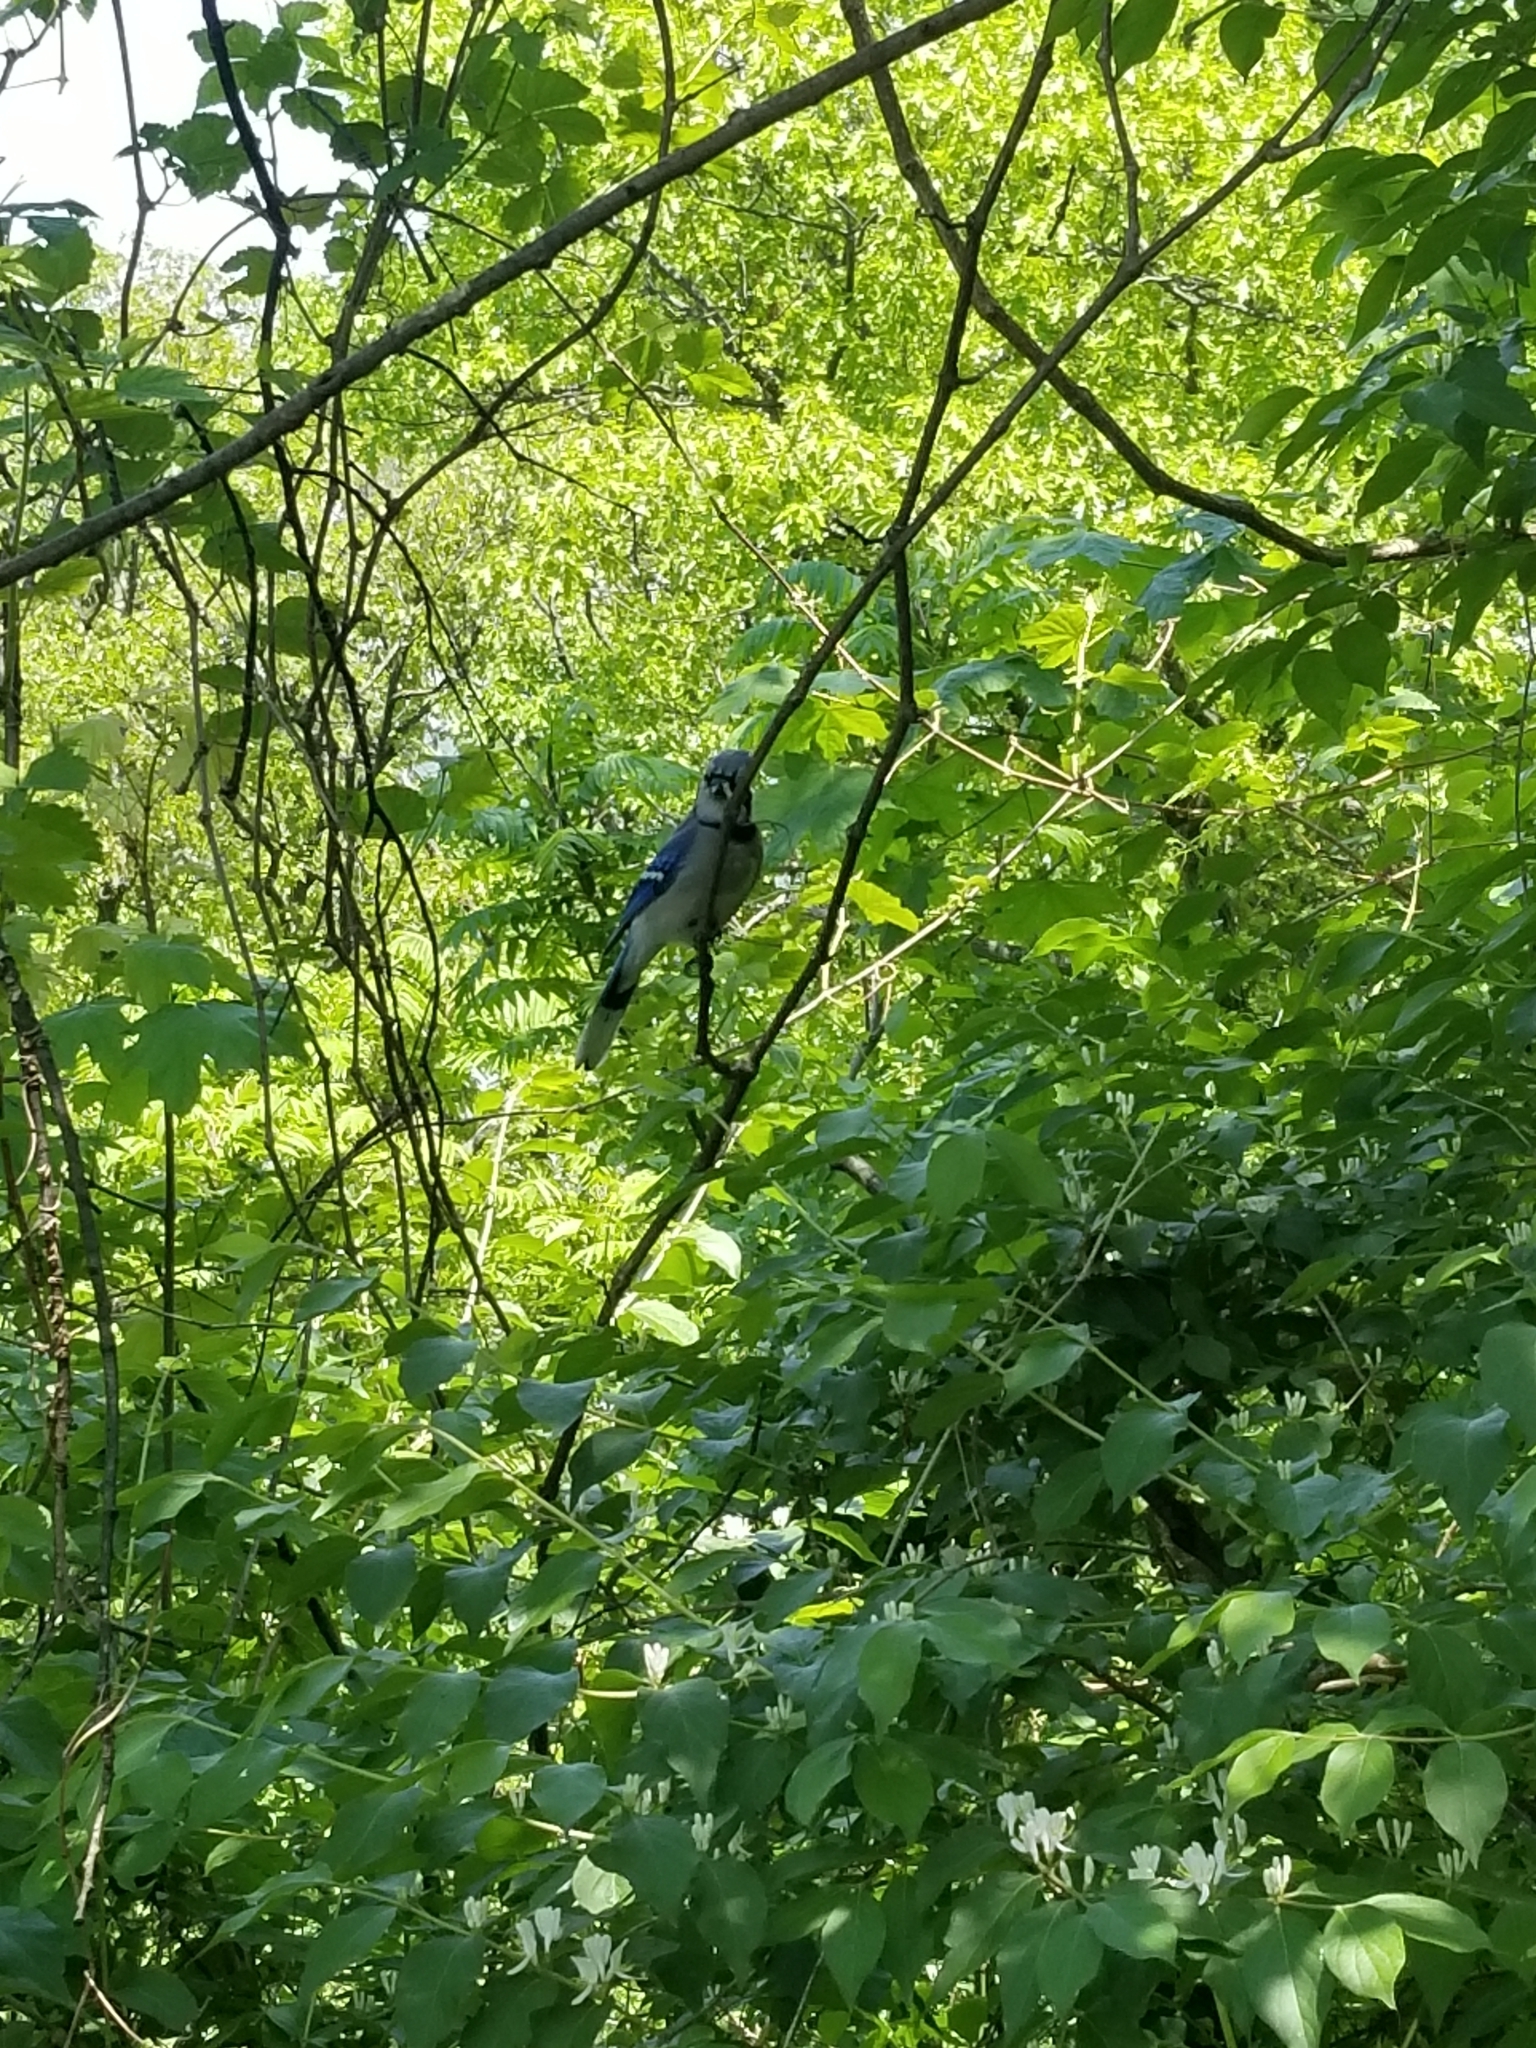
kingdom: Animalia
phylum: Chordata
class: Aves
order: Passeriformes
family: Corvidae
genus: Cyanocitta
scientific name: Cyanocitta cristata
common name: Blue jay
